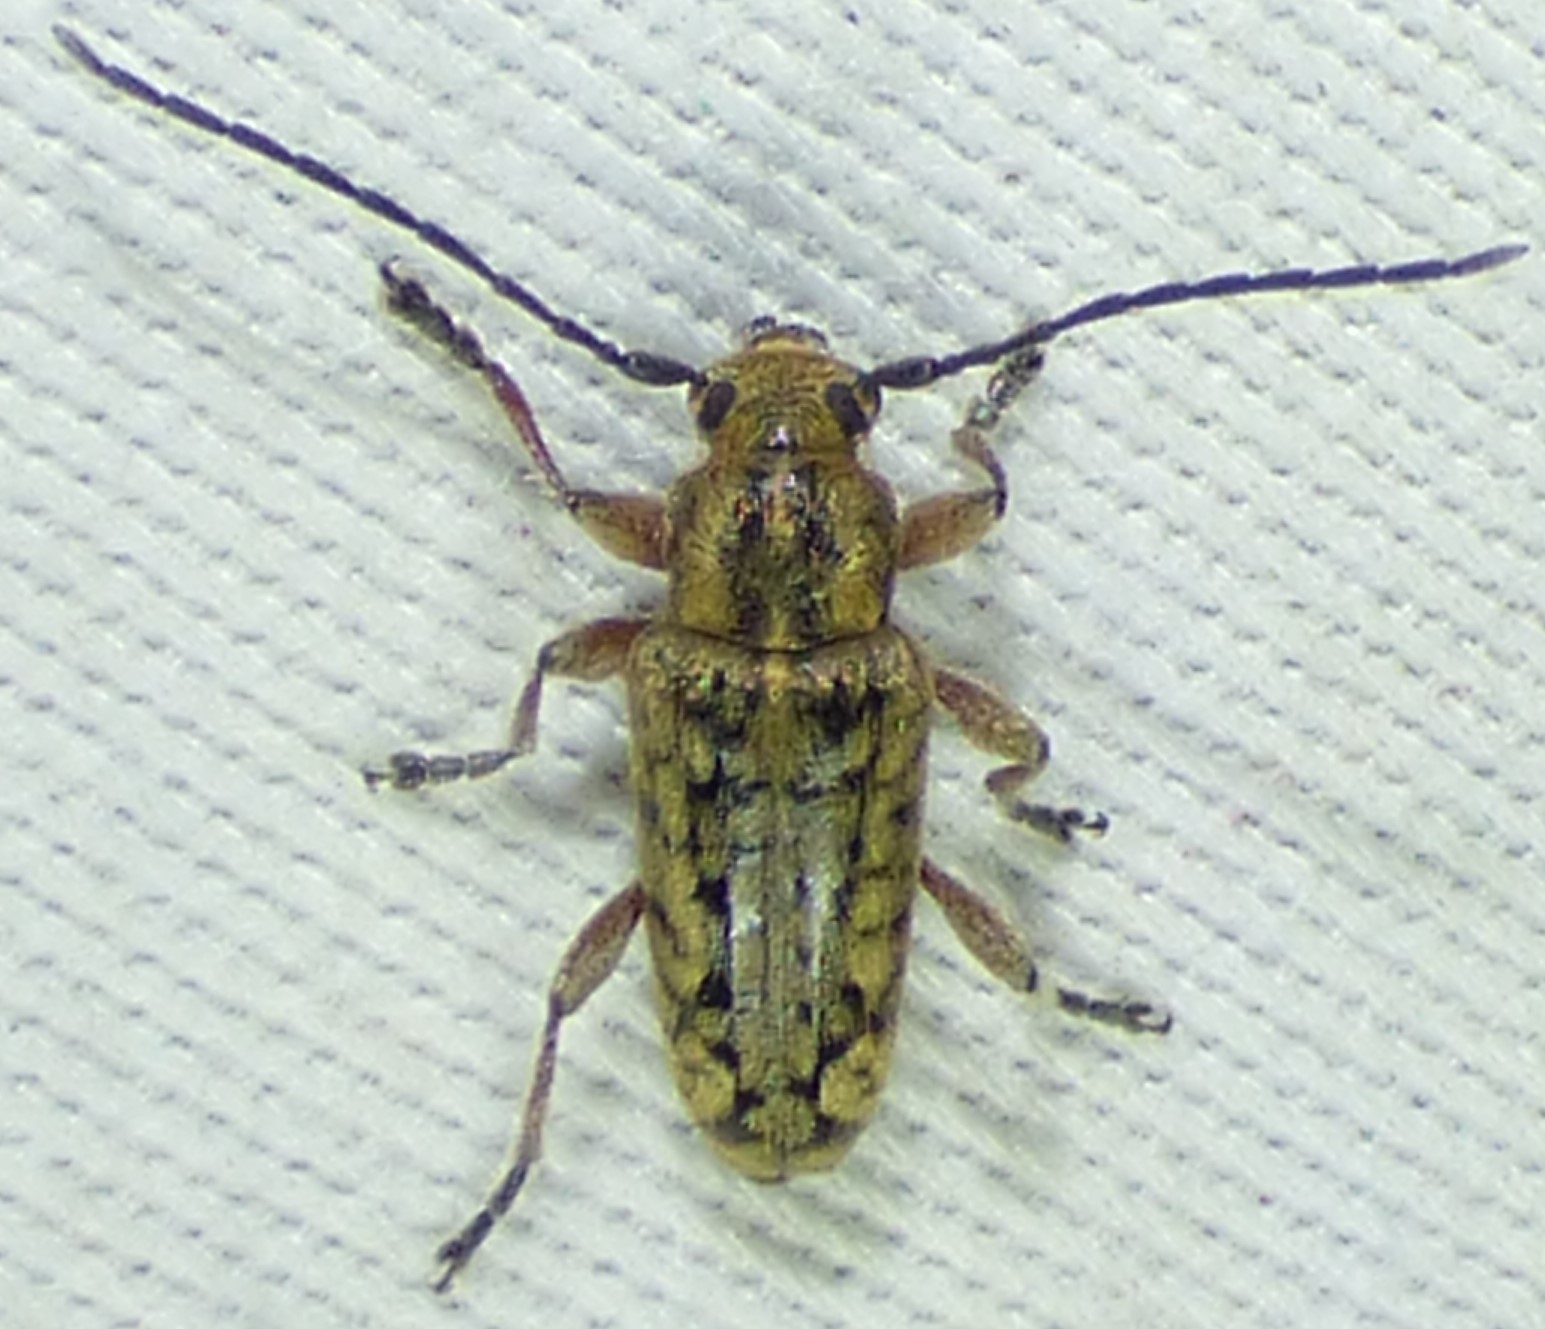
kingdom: Animalia
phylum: Arthropoda
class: Insecta
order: Coleoptera
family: Cerambycidae
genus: Atimia
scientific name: Atimia confusa
